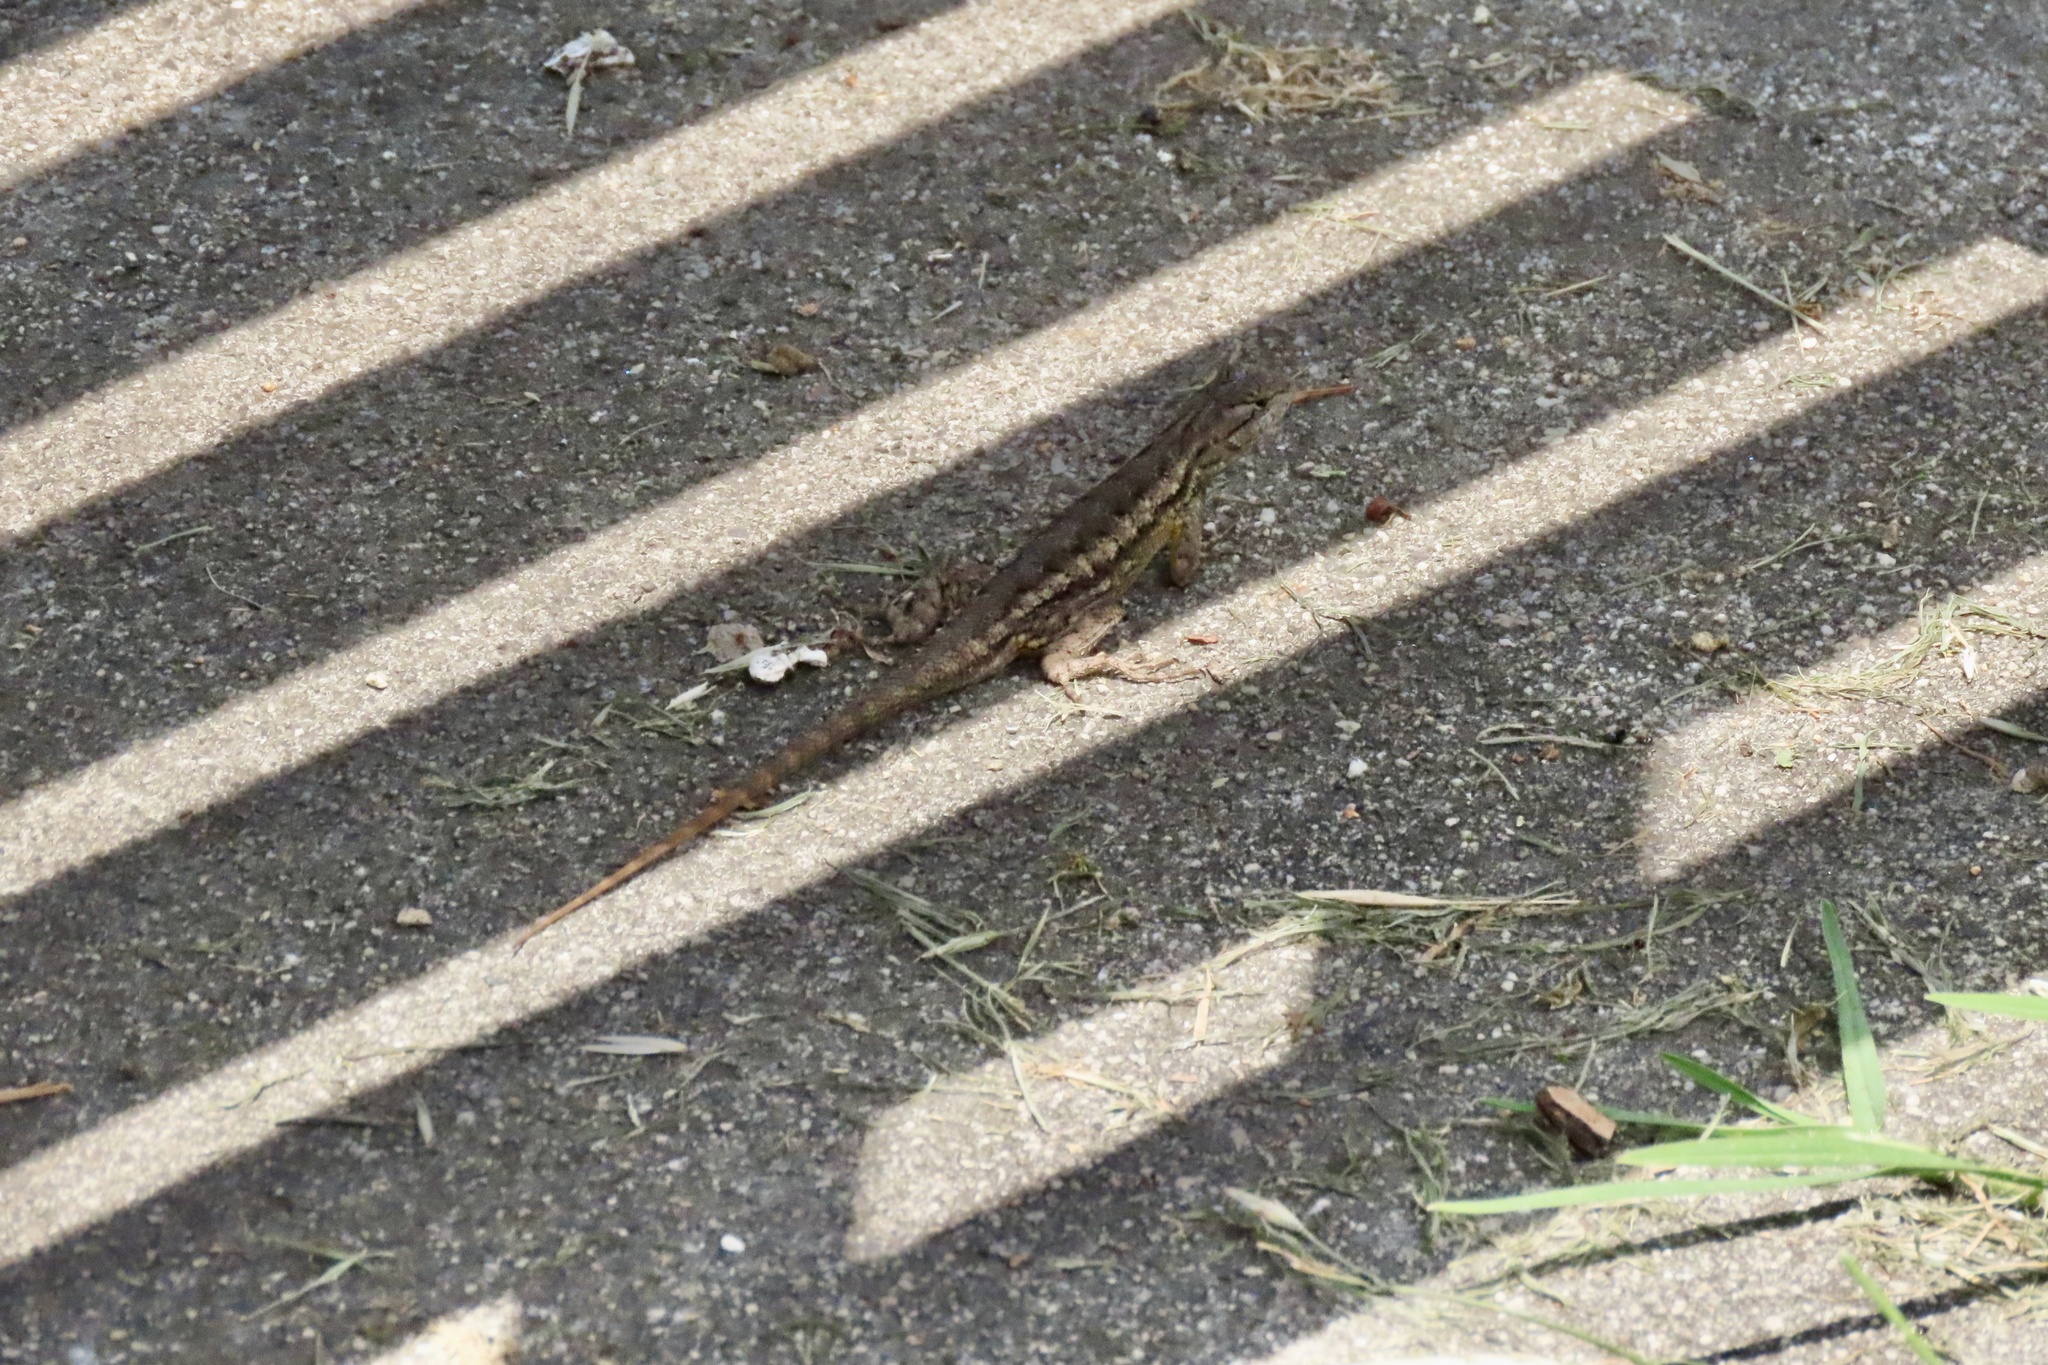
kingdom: Animalia
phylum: Chordata
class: Squamata
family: Phrynosomatidae
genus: Sceloporus
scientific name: Sceloporus occidentalis
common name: Western fence lizard
